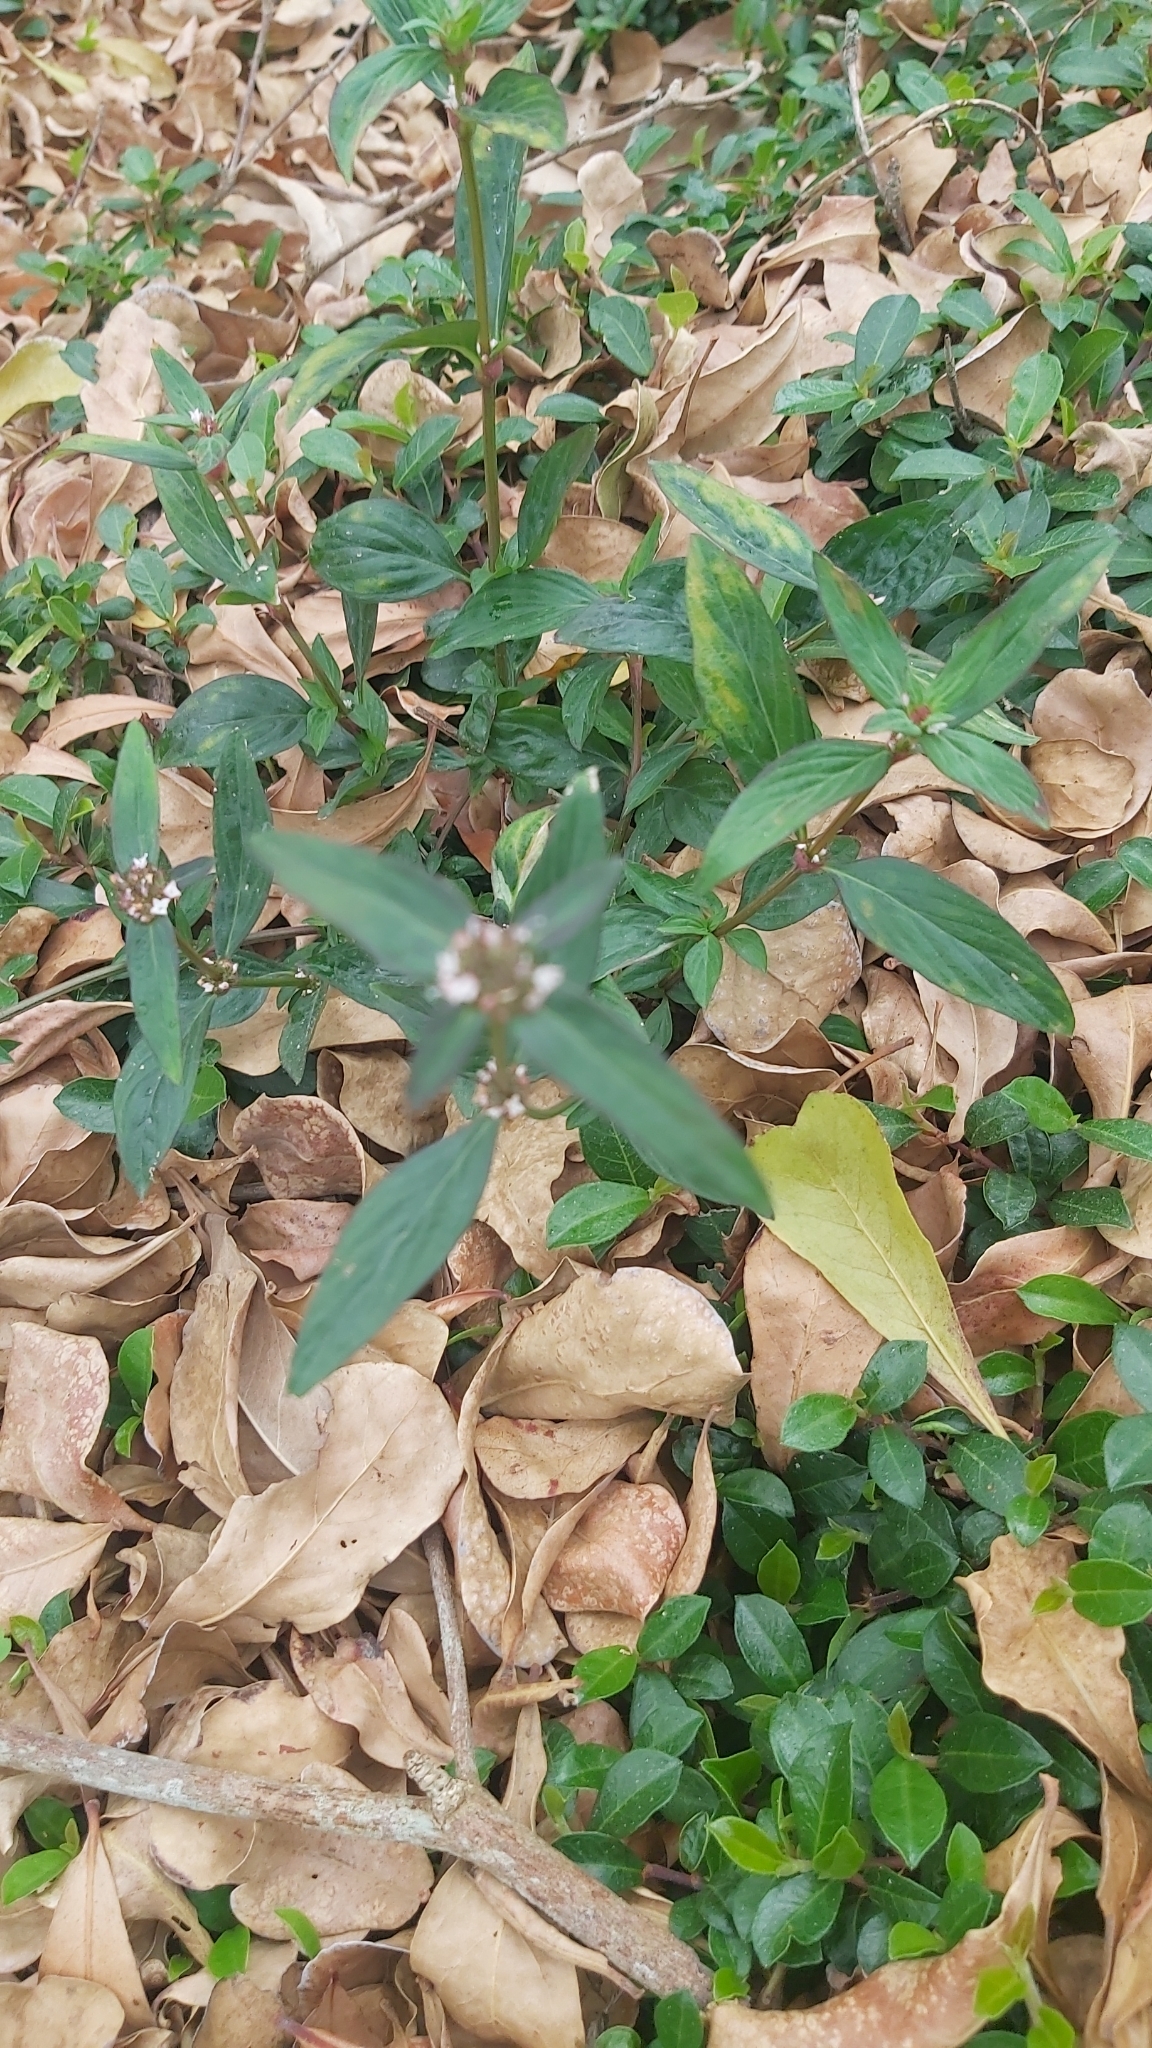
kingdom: Plantae
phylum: Tracheophyta
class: Magnoliopsida
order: Gentianales
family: Rubiaceae
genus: Spermacoce
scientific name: Spermacoce remota
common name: Woodland false buttonweed
